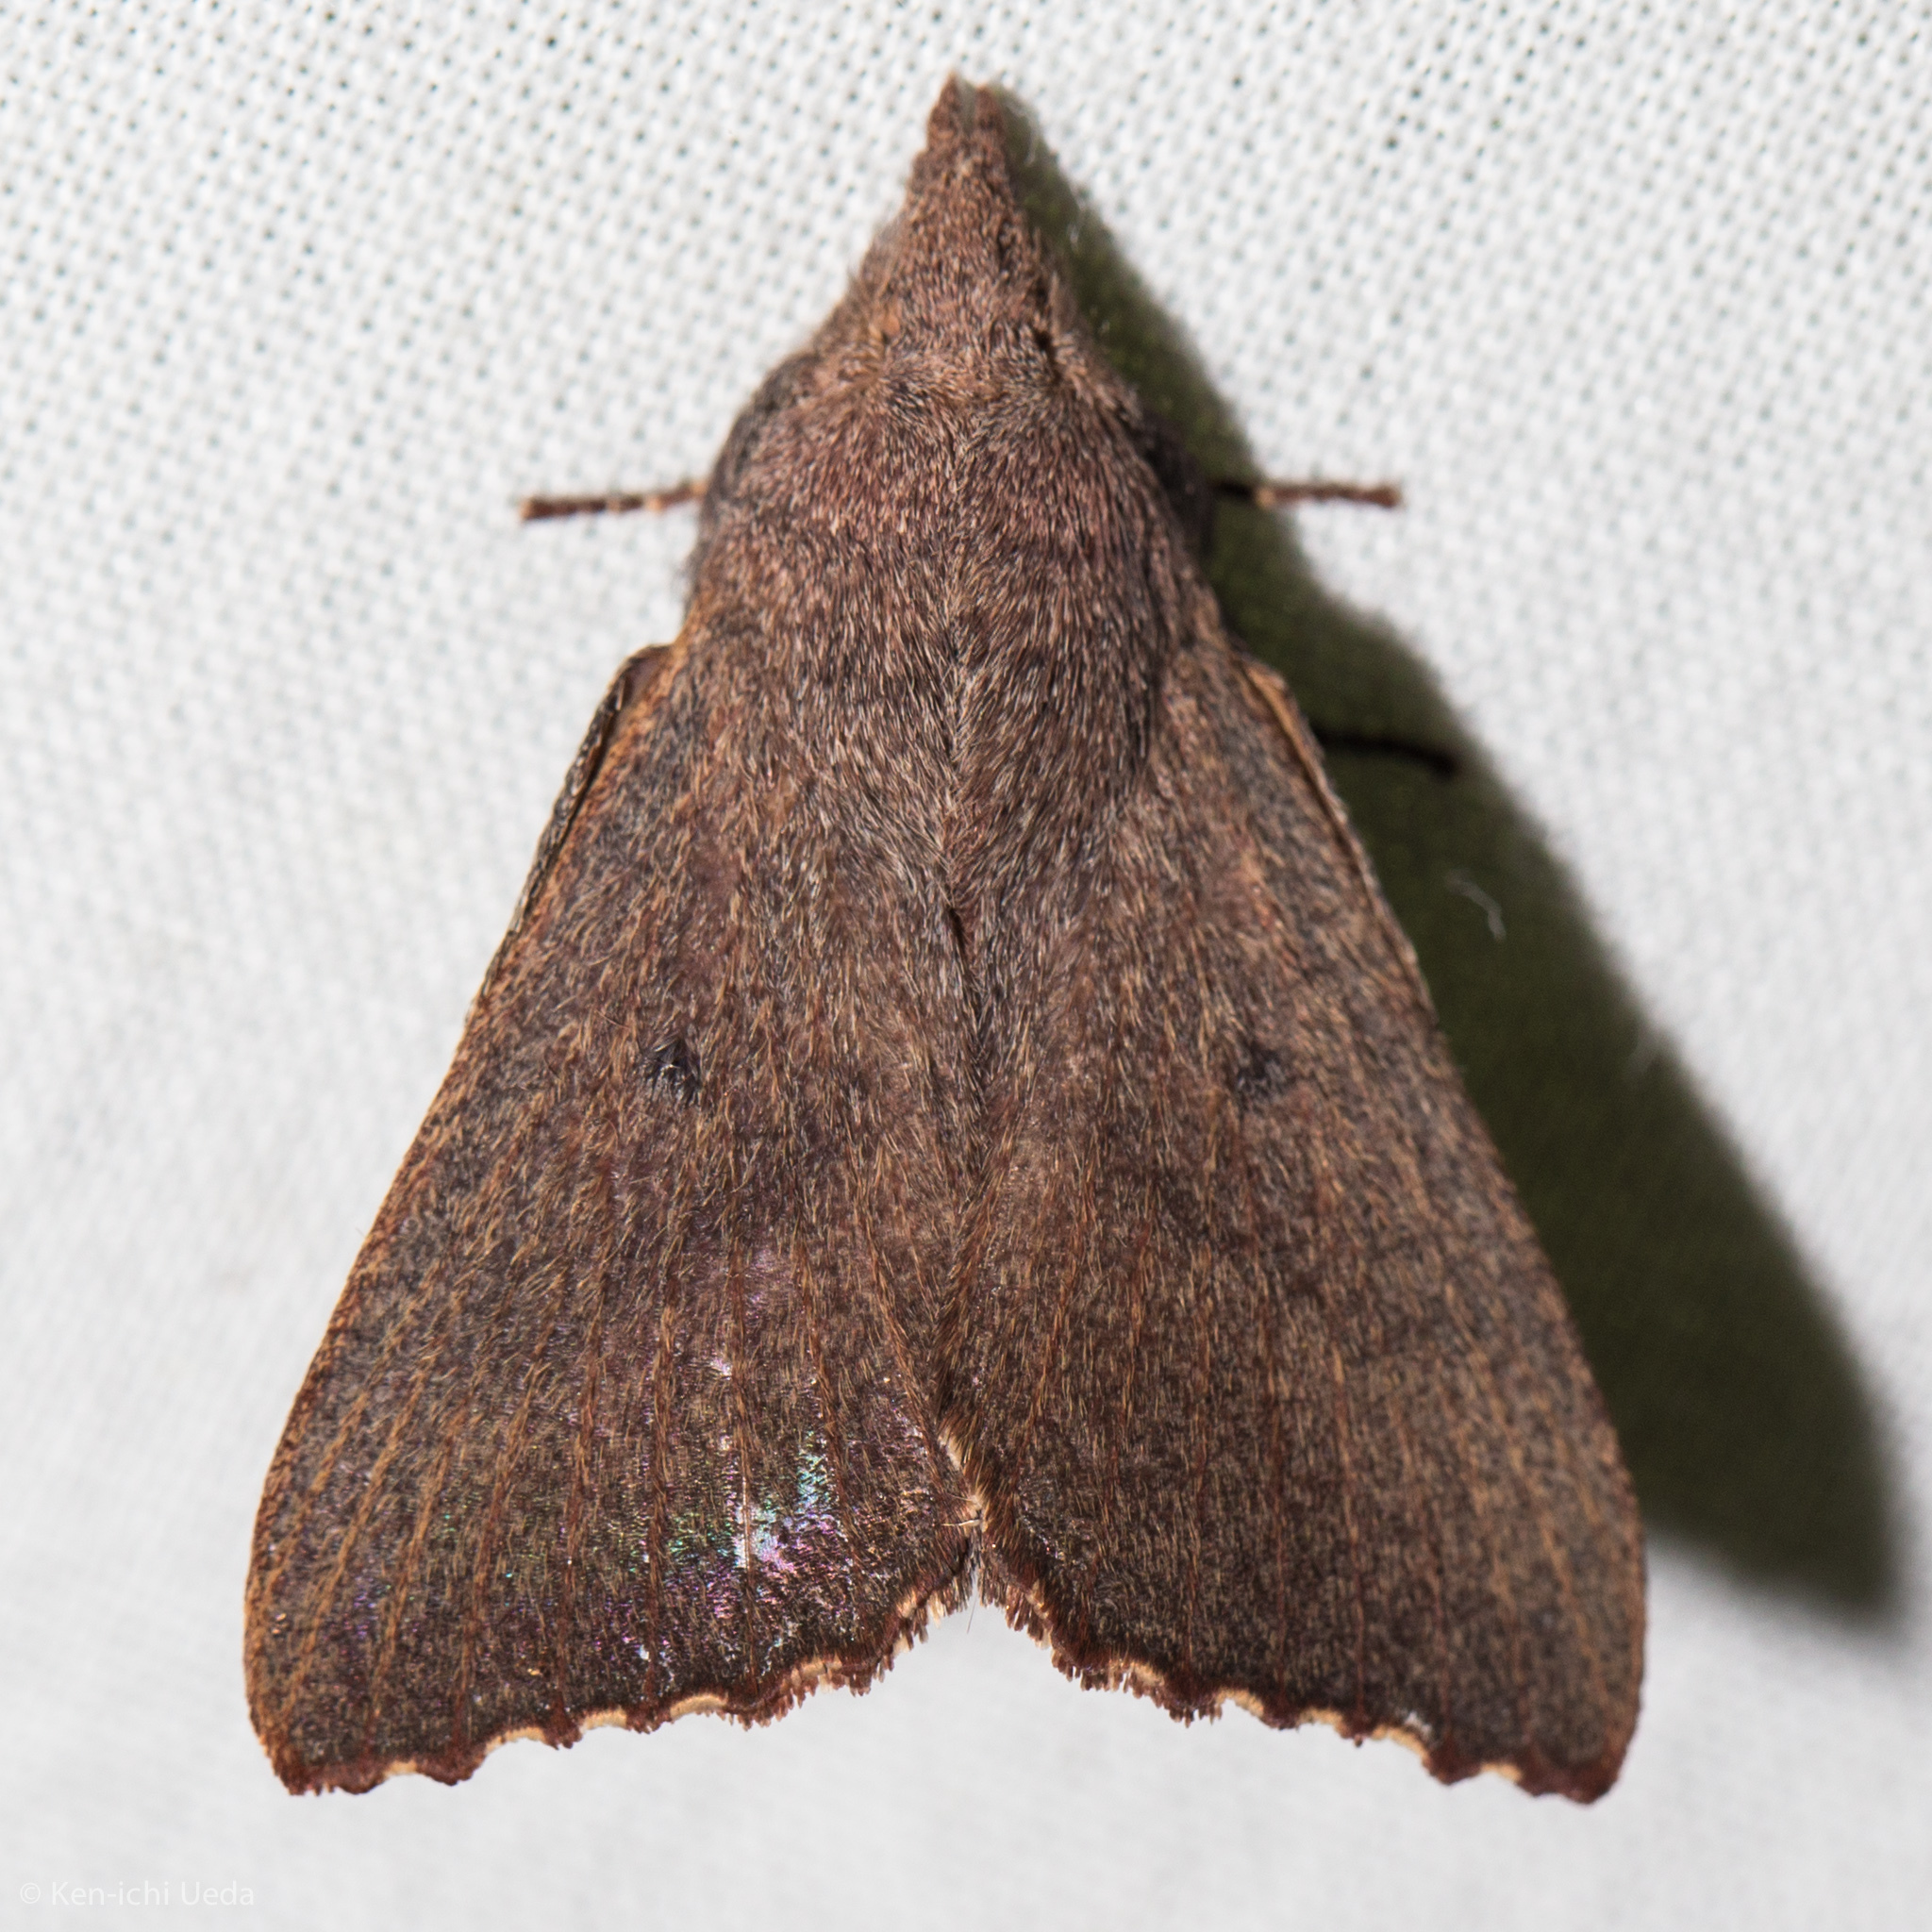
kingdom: Animalia
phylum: Arthropoda
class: Insecta
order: Lepidoptera
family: Lasiocampidae
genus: Pararguda
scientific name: Pararguda rufescens
